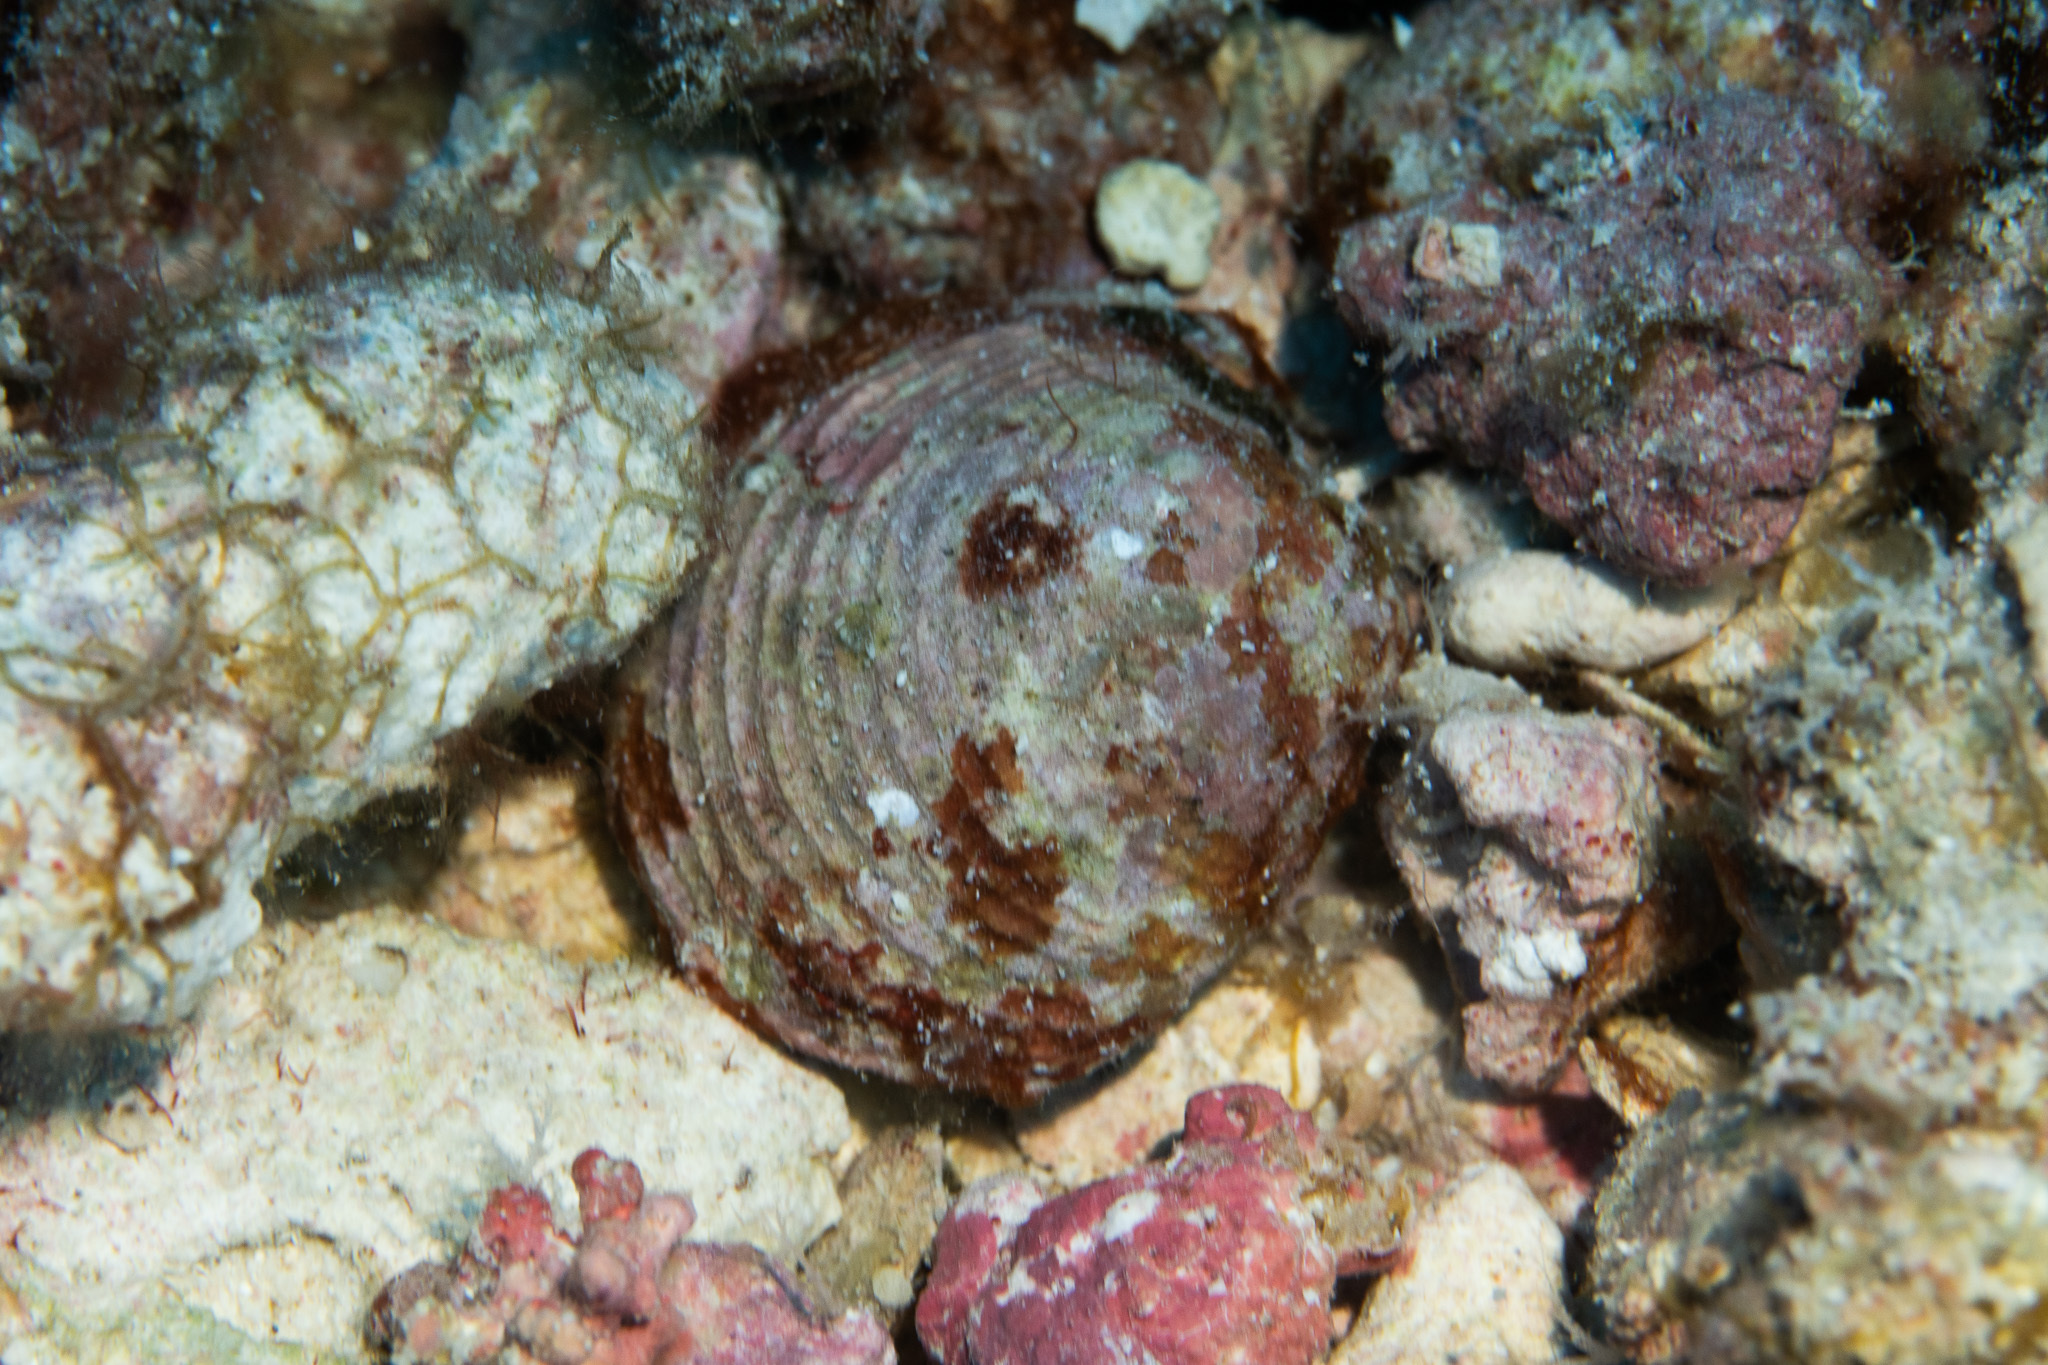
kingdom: Animalia
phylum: Mollusca
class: Bivalvia
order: Venerida
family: Veneridae
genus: Globivenus
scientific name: Globivenus toreuma
